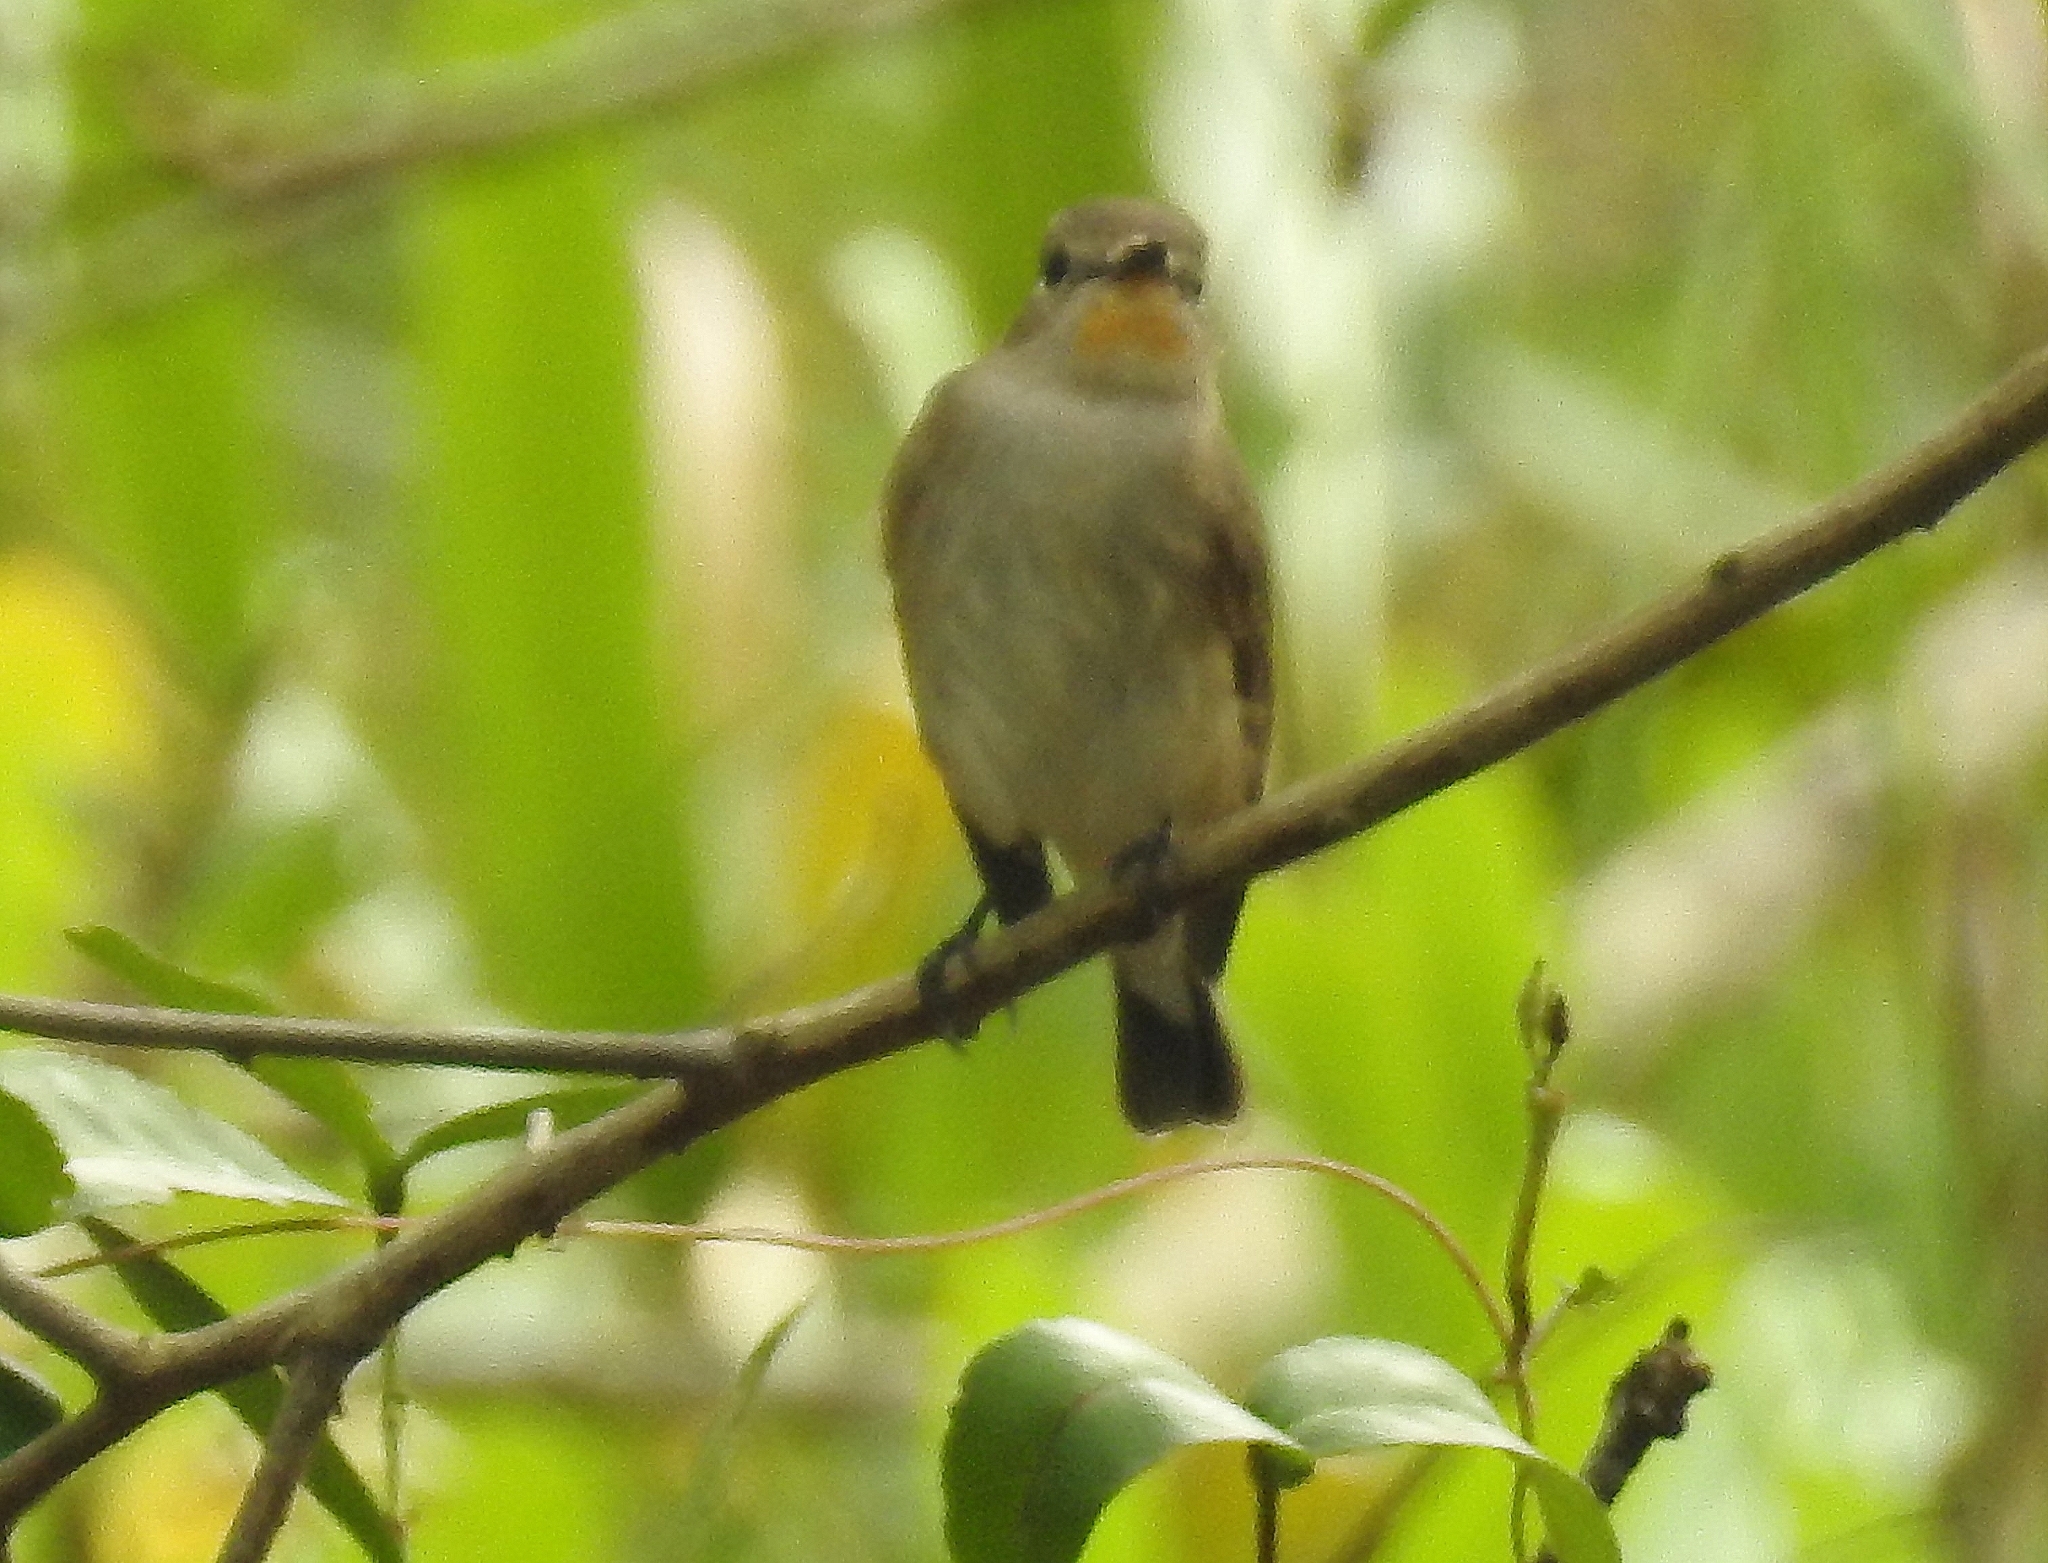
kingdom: Animalia
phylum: Chordata
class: Aves
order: Passeriformes
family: Muscicapidae
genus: Ficedula
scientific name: Ficedula albicilla
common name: Taiga flycatcher
